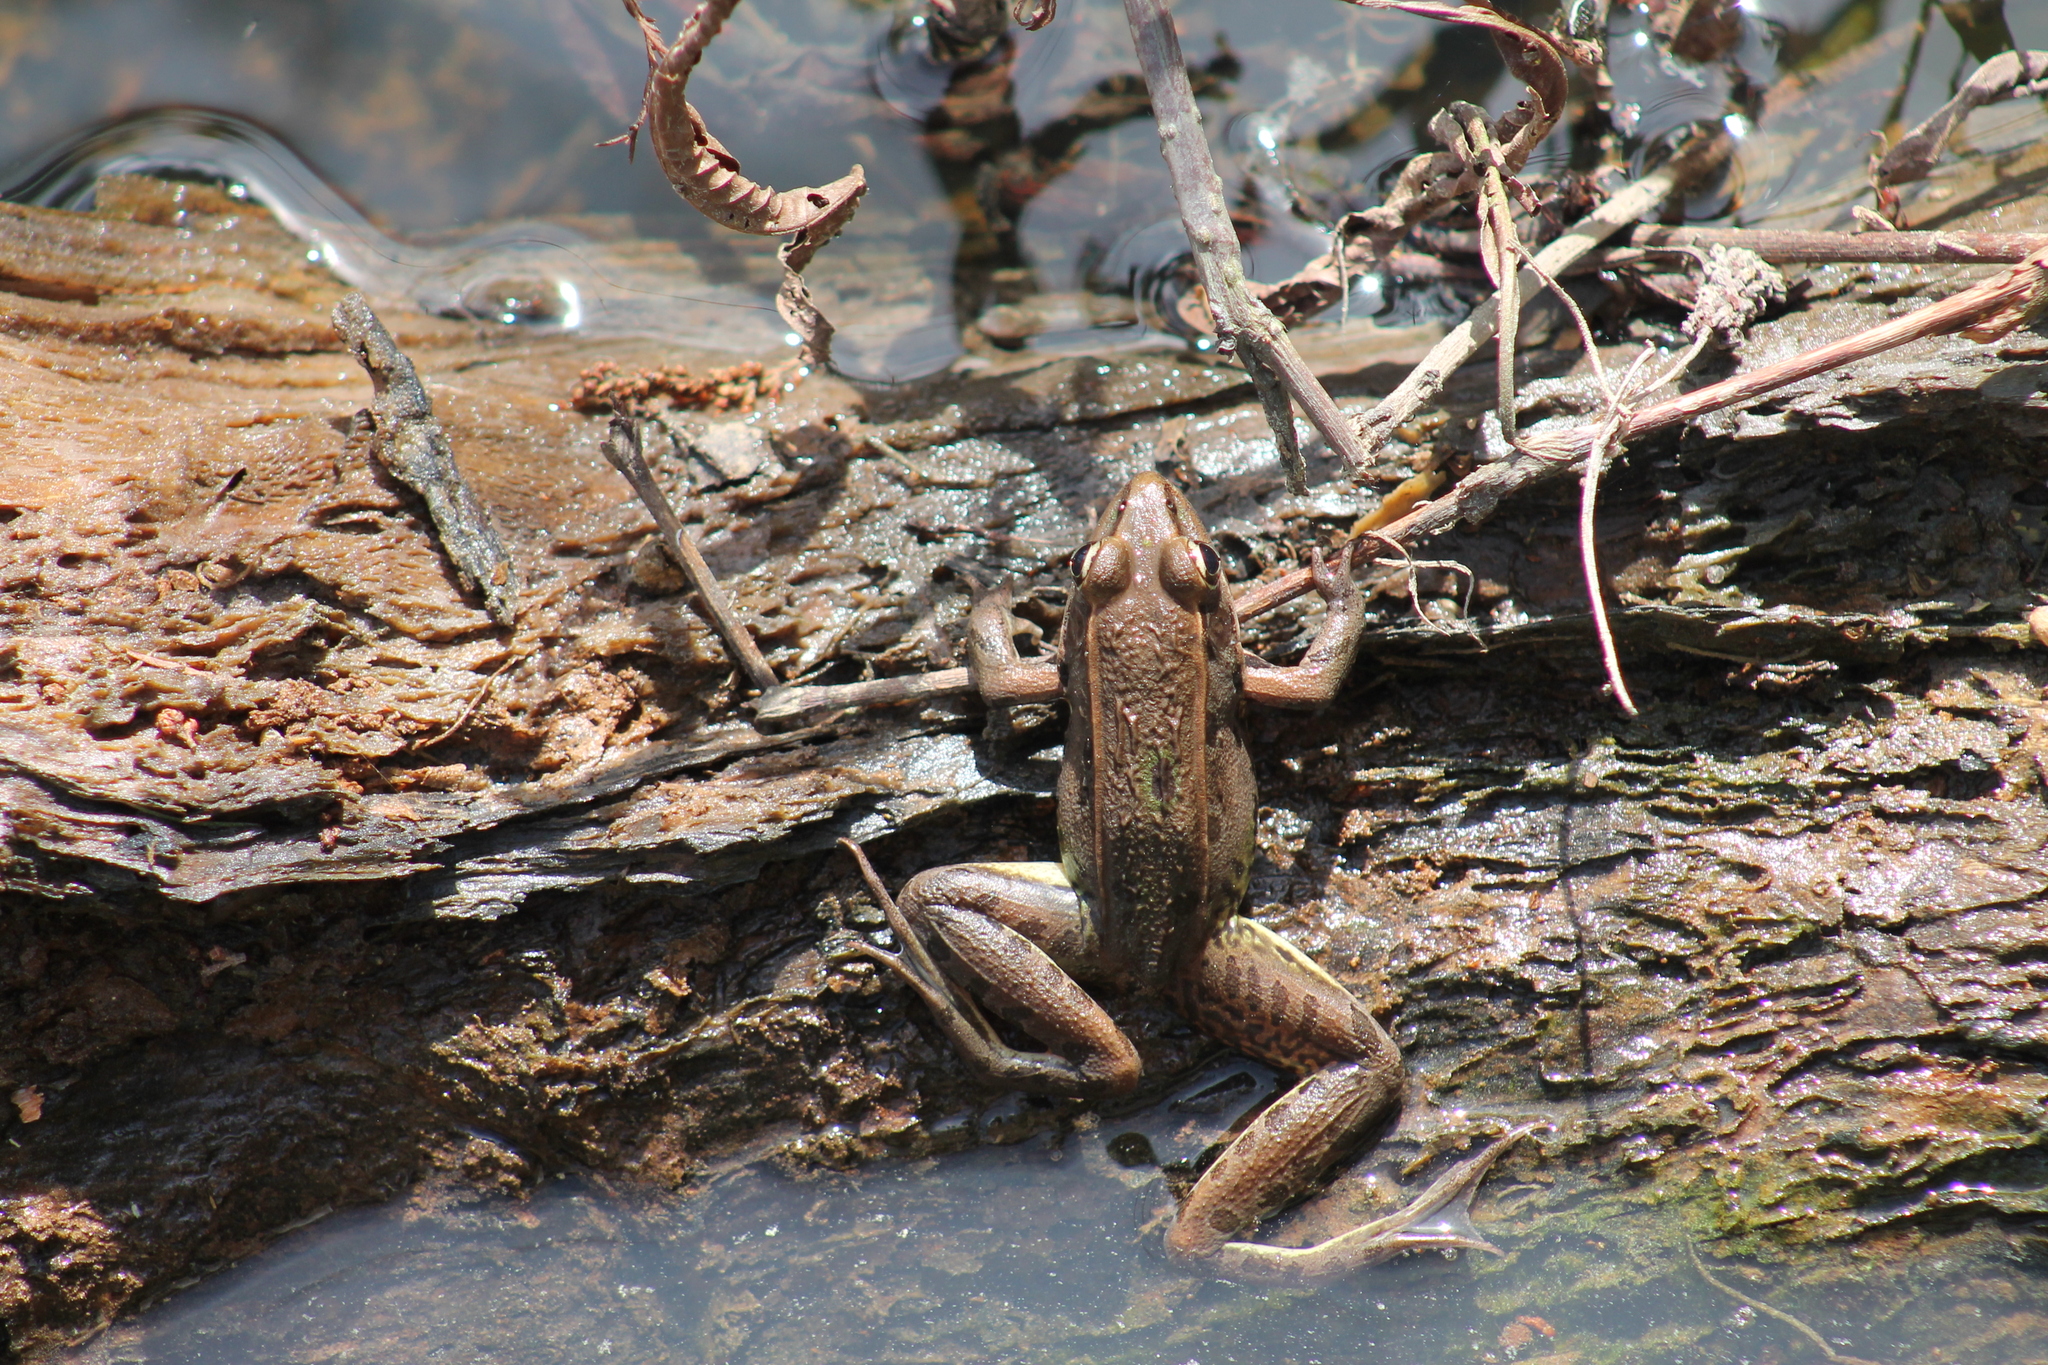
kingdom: Animalia
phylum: Chordata
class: Amphibia
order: Anura
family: Ranidae
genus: Lithobates
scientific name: Lithobates sphenocephalus
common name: Southern leopard frog
